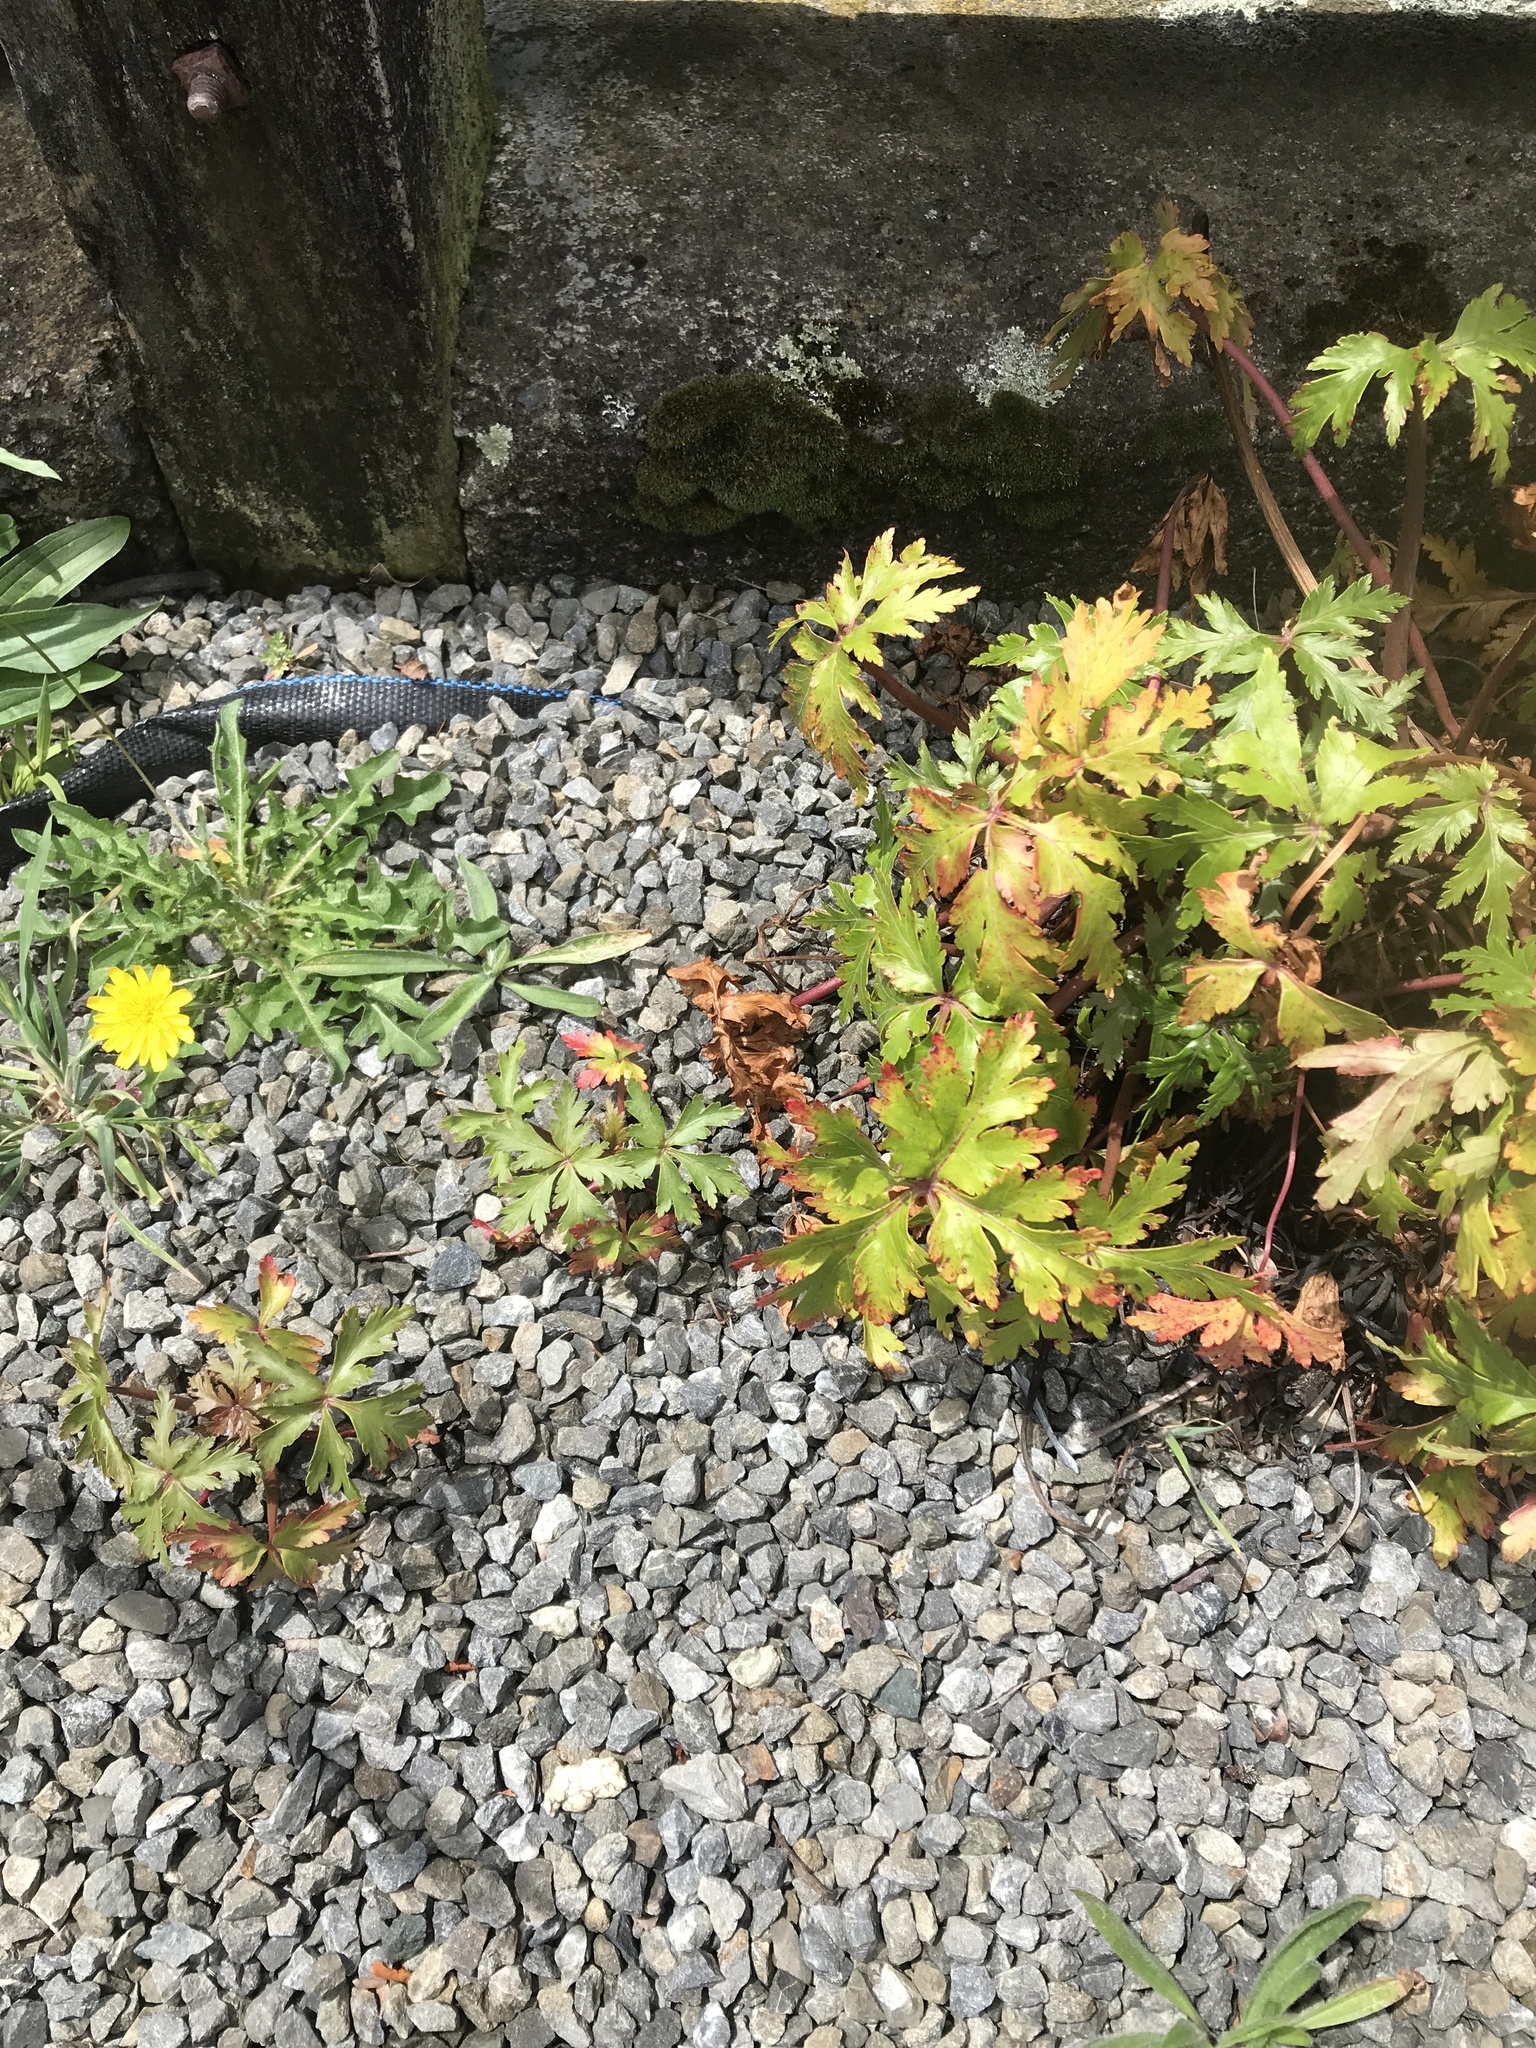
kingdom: Plantae
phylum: Tracheophyta
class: Magnoliopsida
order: Geraniales
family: Geraniaceae
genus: Geranium
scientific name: Geranium maderense
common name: Giant herb-robert
